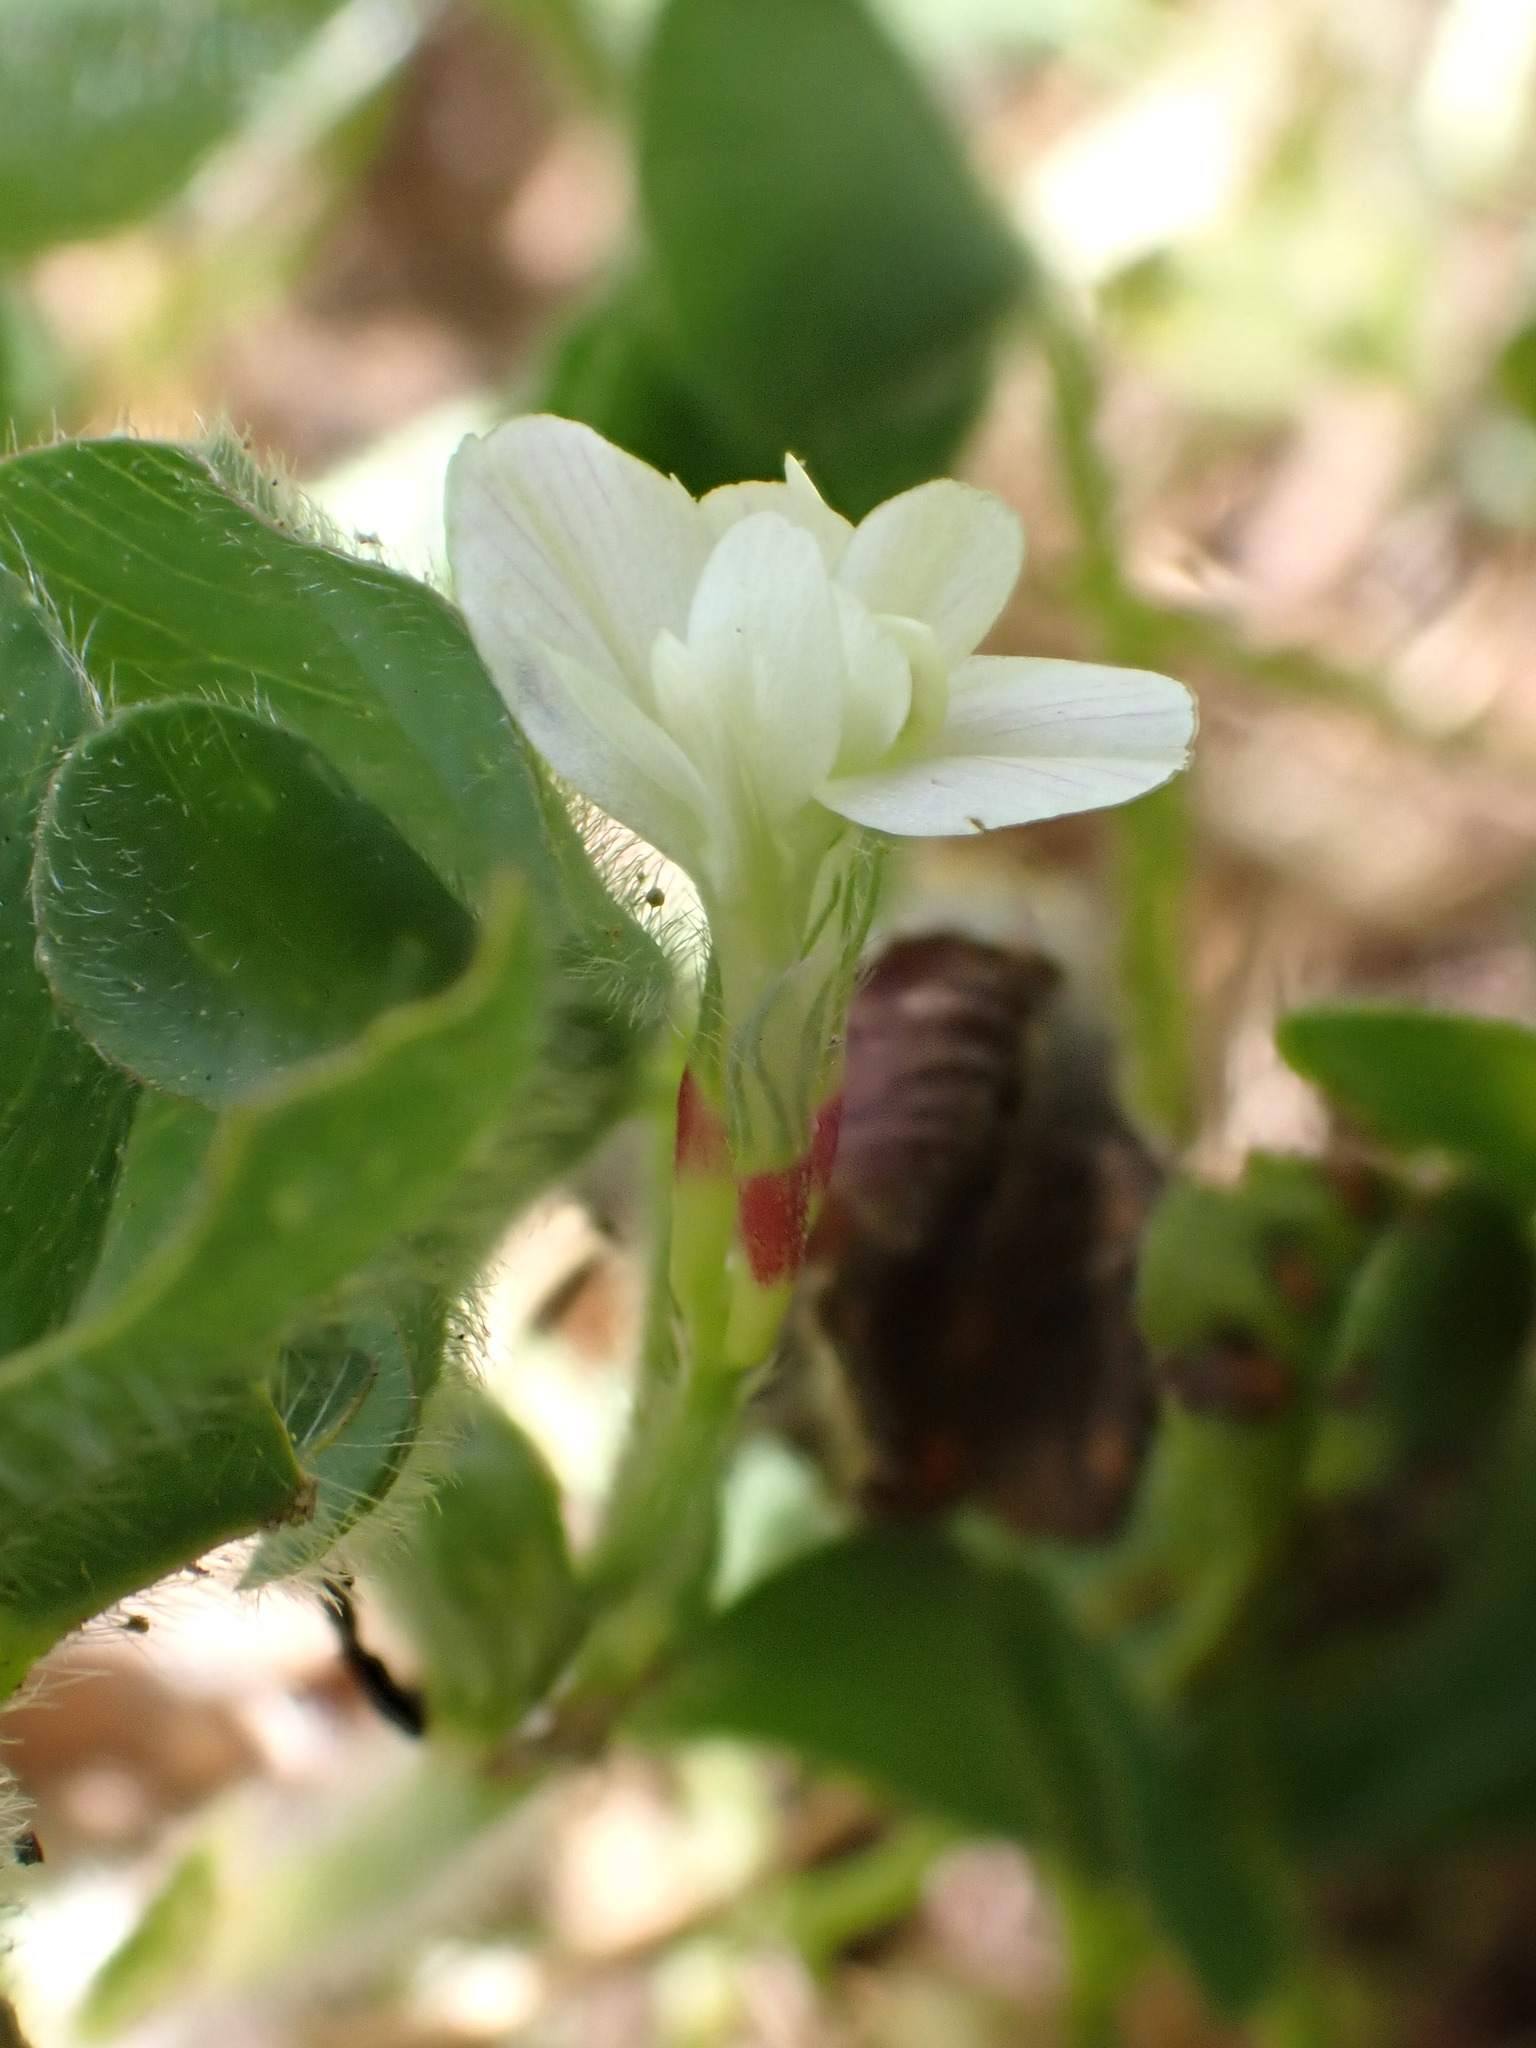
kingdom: Plantae
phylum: Tracheophyta
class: Magnoliopsida
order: Fabales
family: Fabaceae
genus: Trifolium
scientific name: Trifolium subterraneum
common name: Subterranean clover
